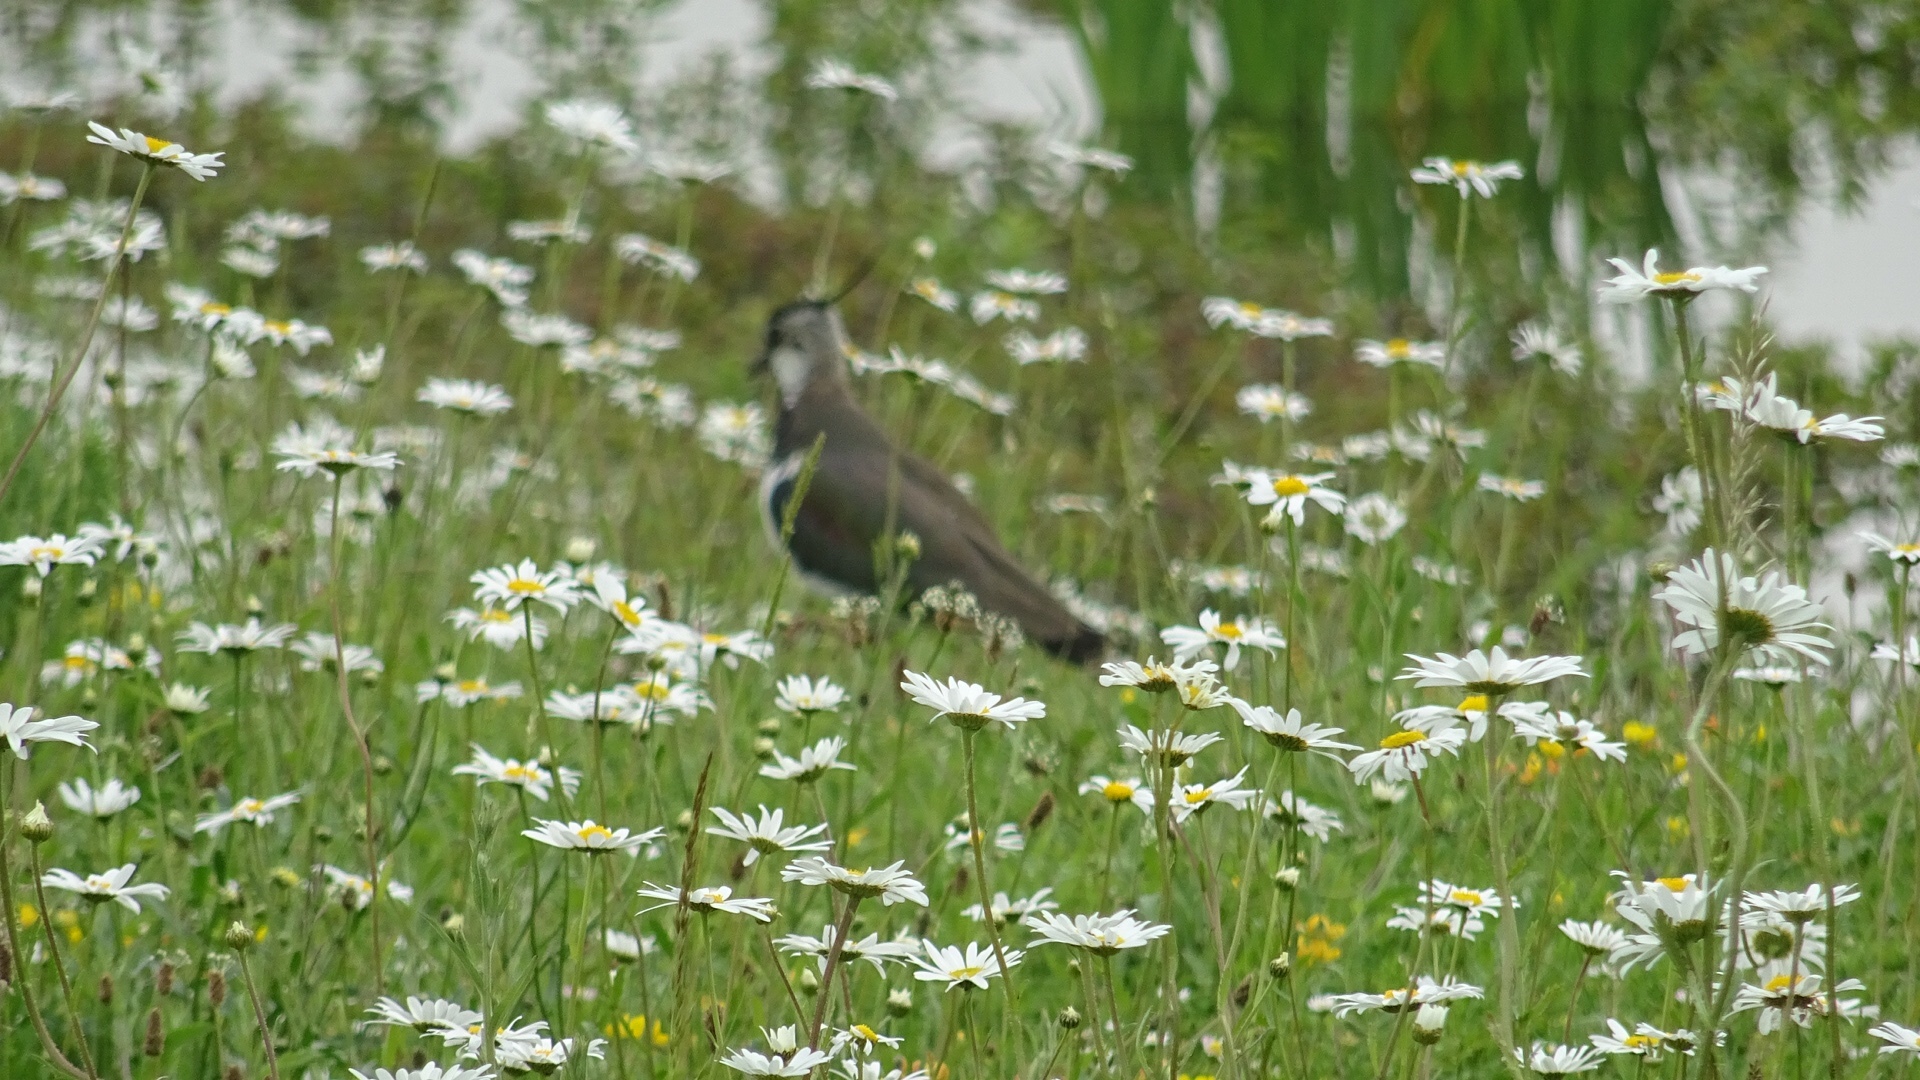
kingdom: Animalia
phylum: Chordata
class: Aves
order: Charadriiformes
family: Charadriidae
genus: Vanellus
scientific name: Vanellus vanellus
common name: Northern lapwing
